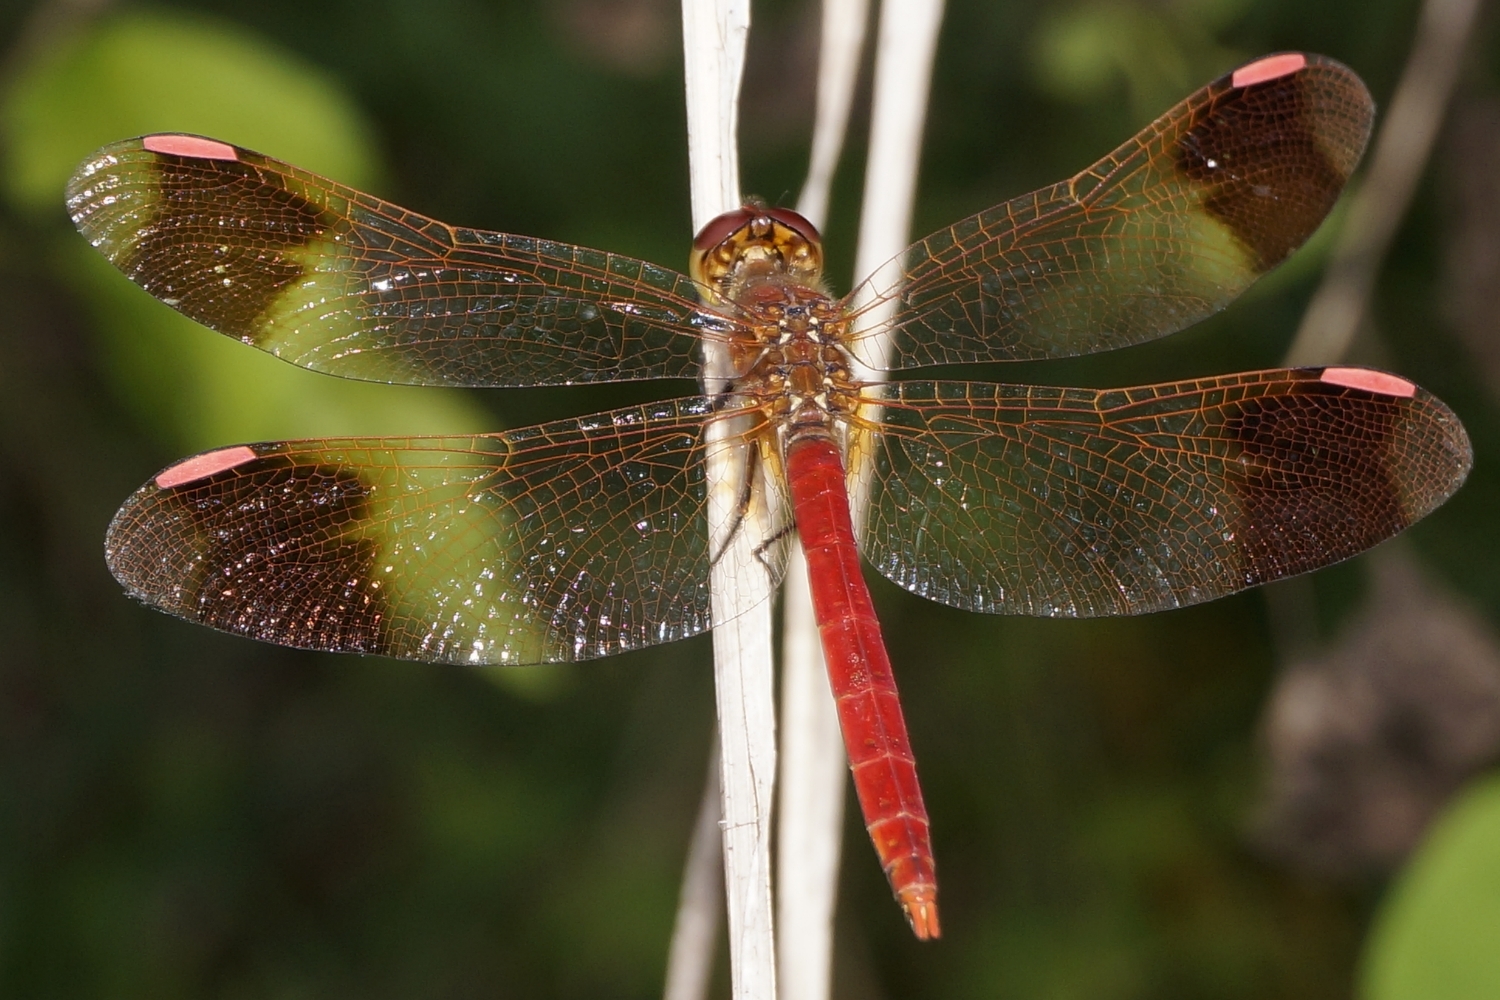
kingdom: Animalia
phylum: Arthropoda
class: Insecta
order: Odonata
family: Libellulidae
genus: Sympetrum
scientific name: Sympetrum pedemontanum
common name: Banded darter
